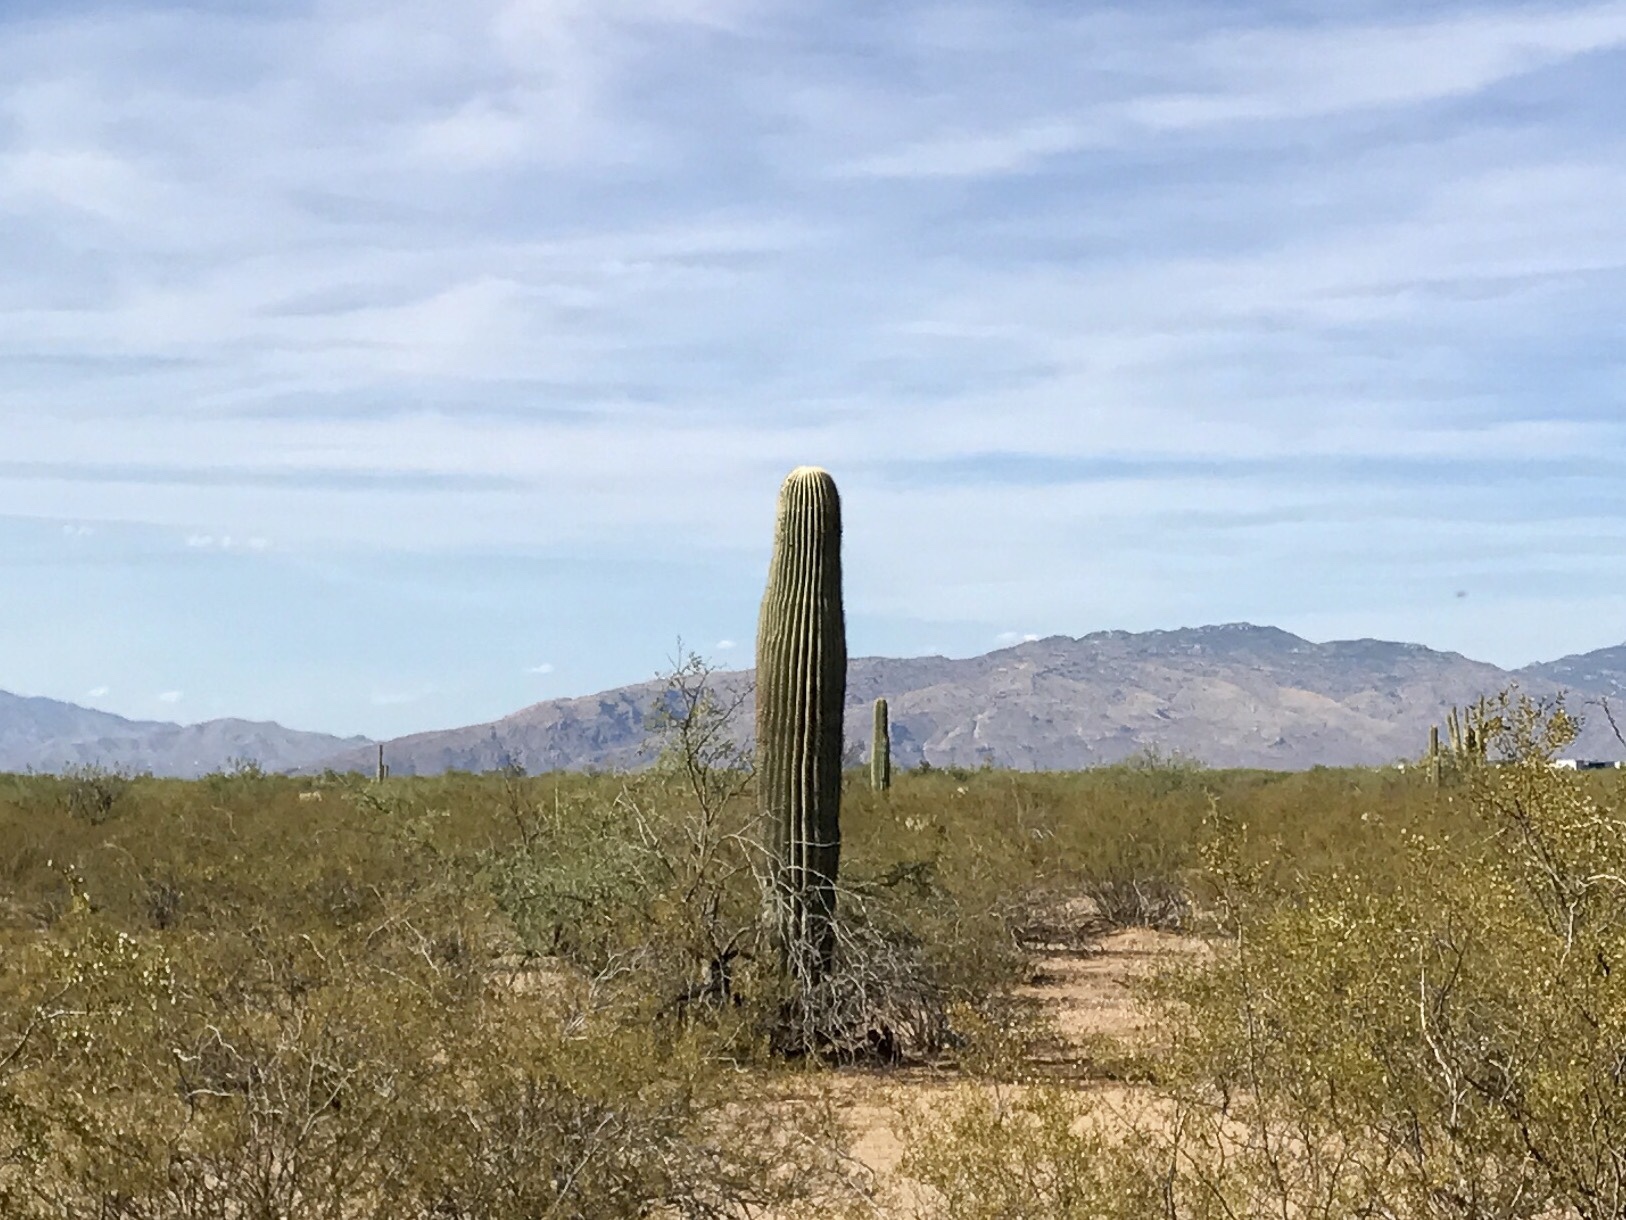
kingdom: Plantae
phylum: Tracheophyta
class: Magnoliopsida
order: Caryophyllales
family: Cactaceae
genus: Carnegiea
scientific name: Carnegiea gigantea
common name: Saguaro
